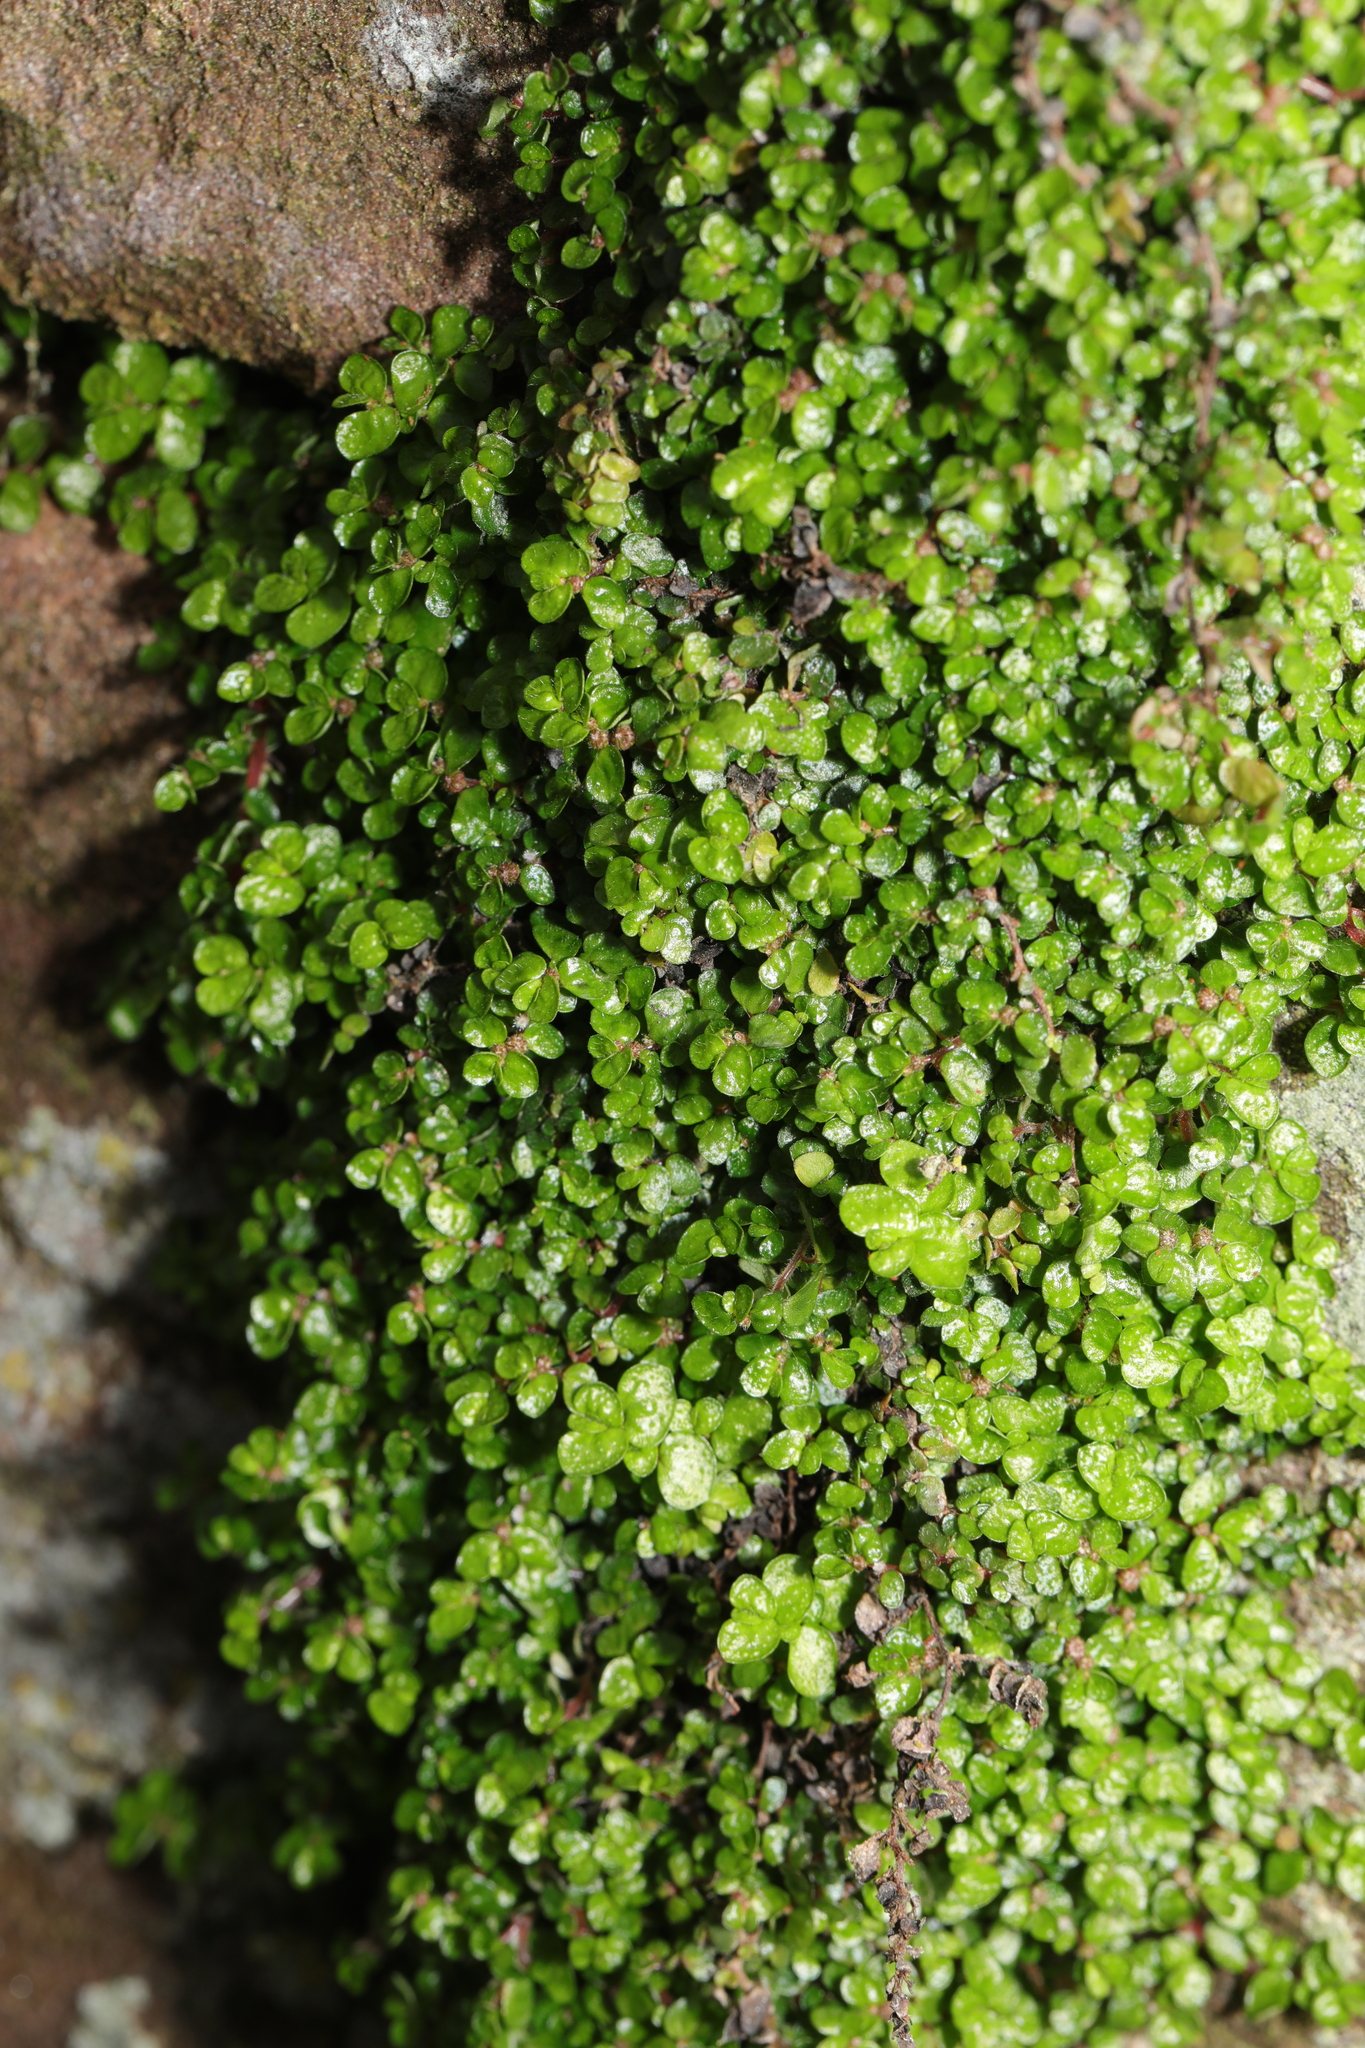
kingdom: Plantae
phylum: Tracheophyta
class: Magnoliopsida
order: Rosales
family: Urticaceae
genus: Soleirolia
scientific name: Soleirolia soleirolii
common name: Mind-your-own-business
